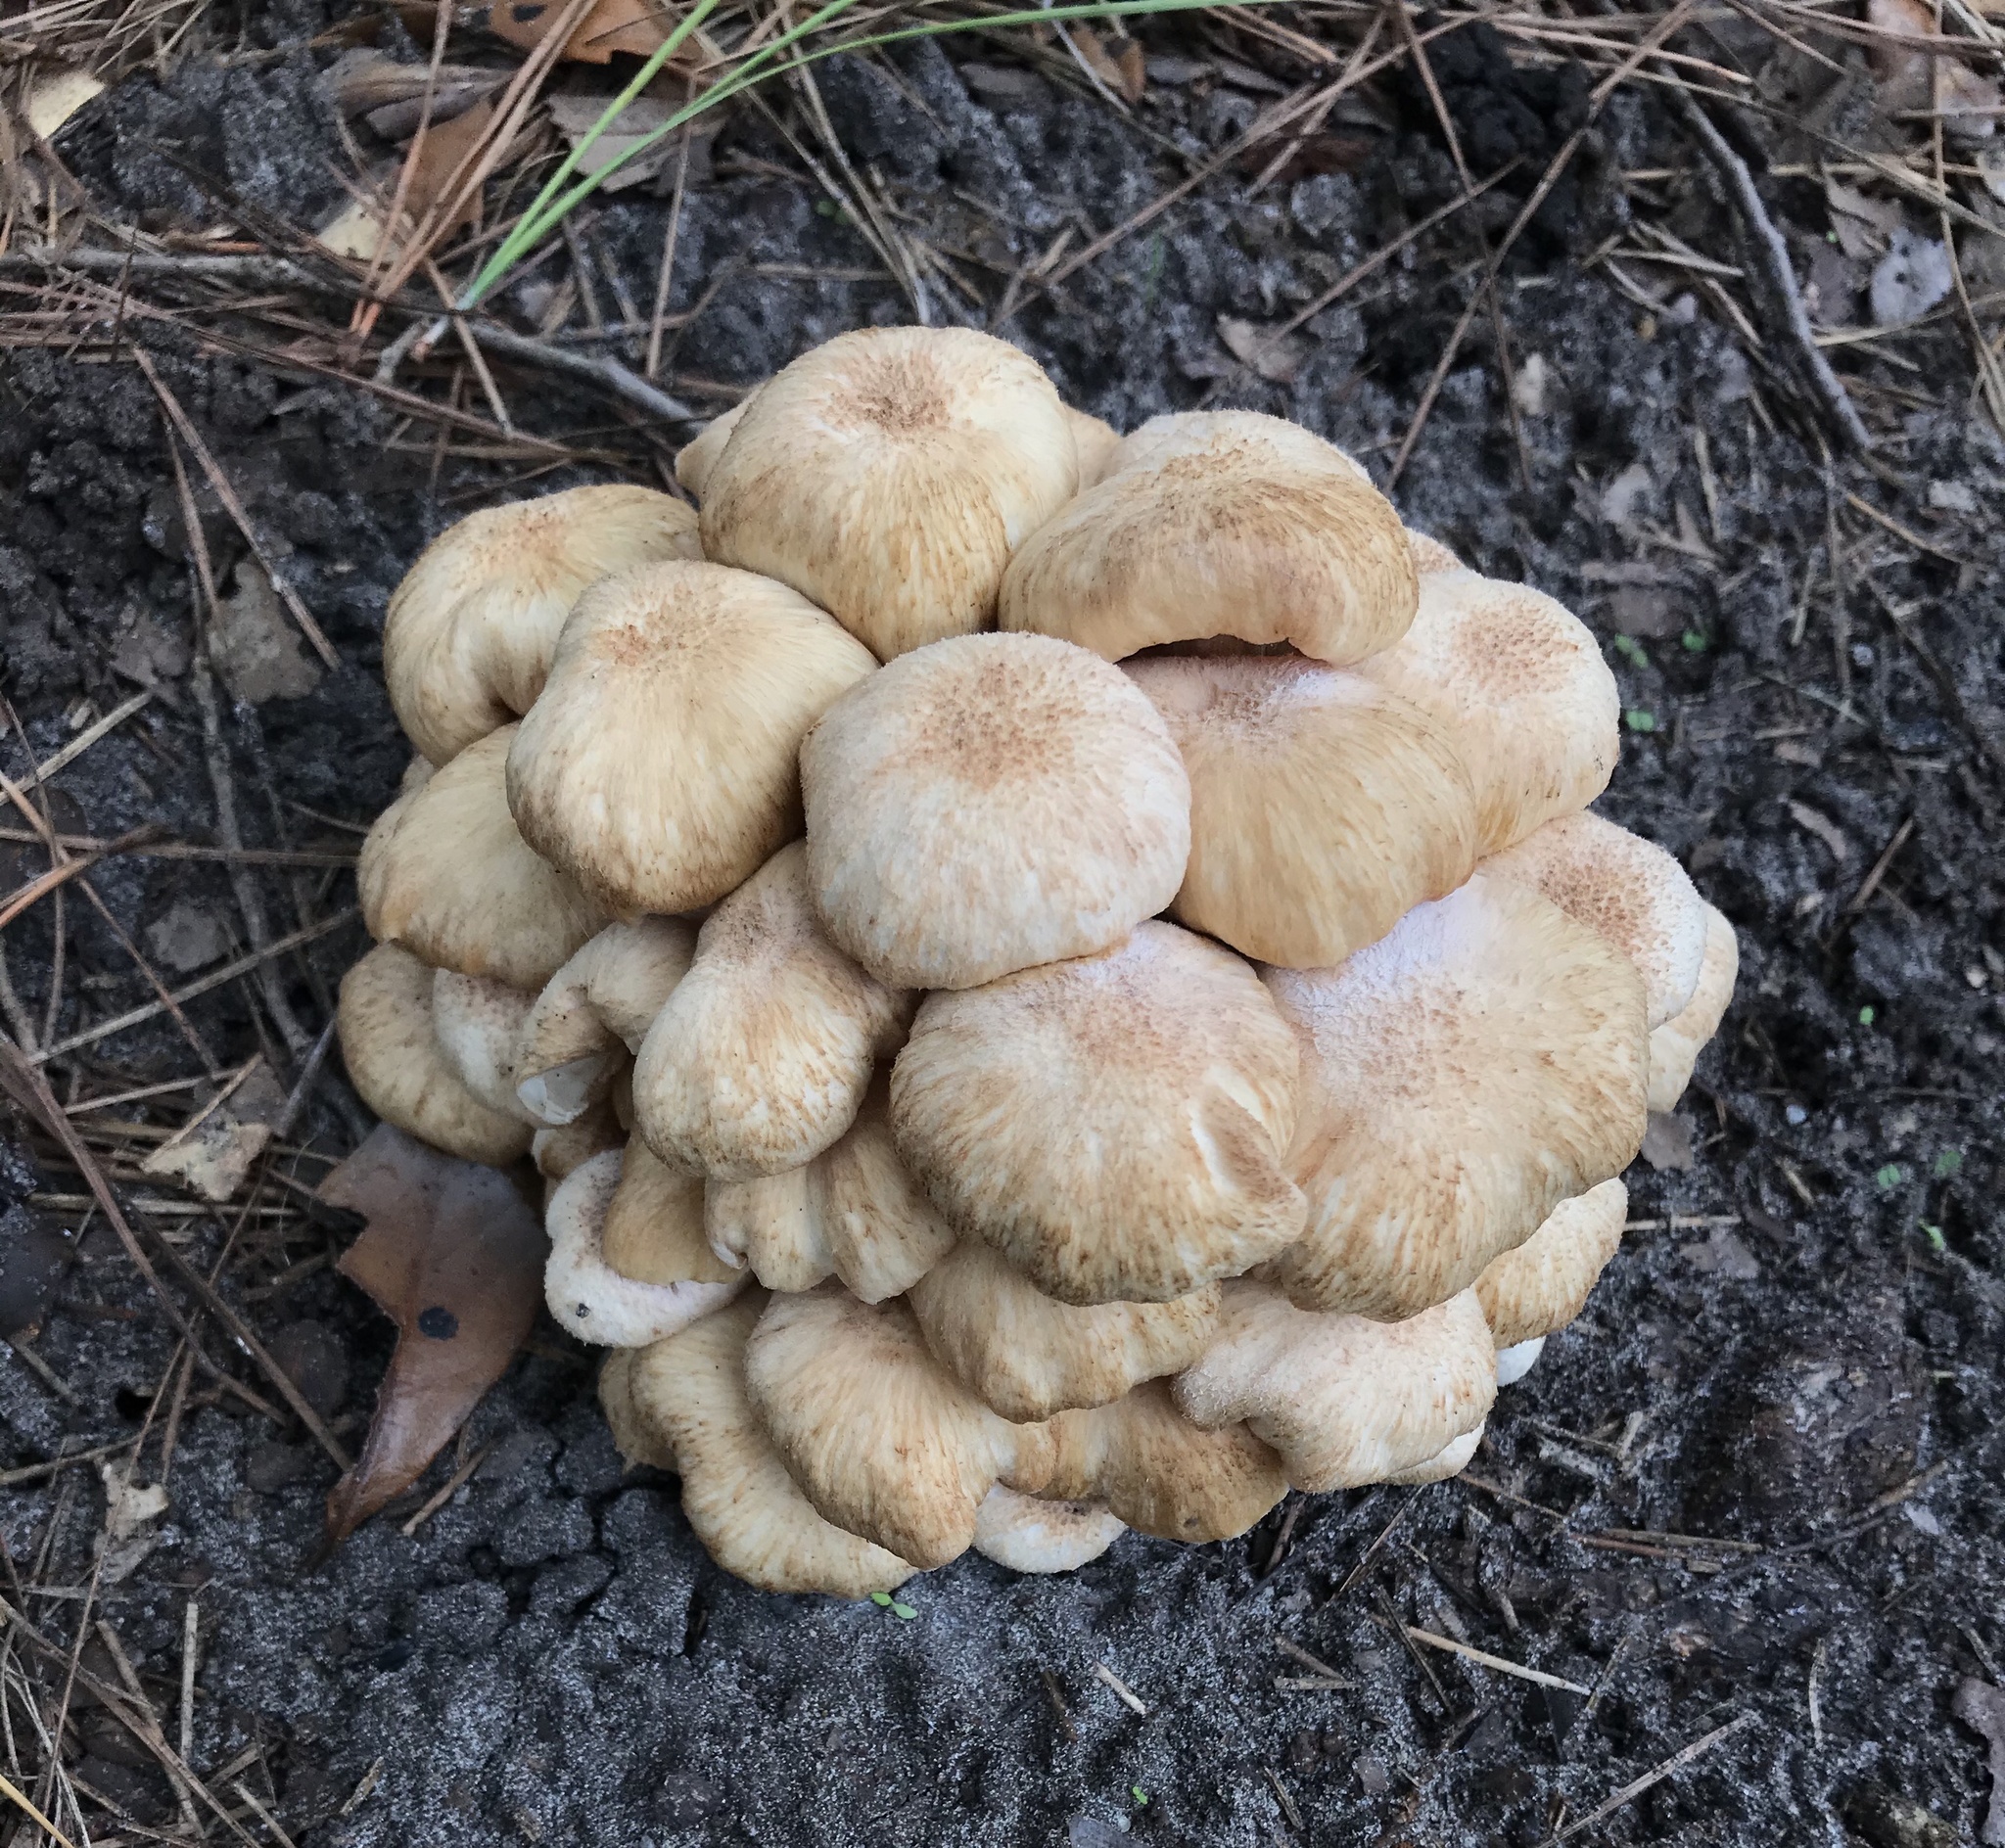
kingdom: Fungi
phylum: Basidiomycota
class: Agaricomycetes
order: Agaricales
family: Physalacriaceae
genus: Desarmillaria
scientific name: Desarmillaria caespitosa
